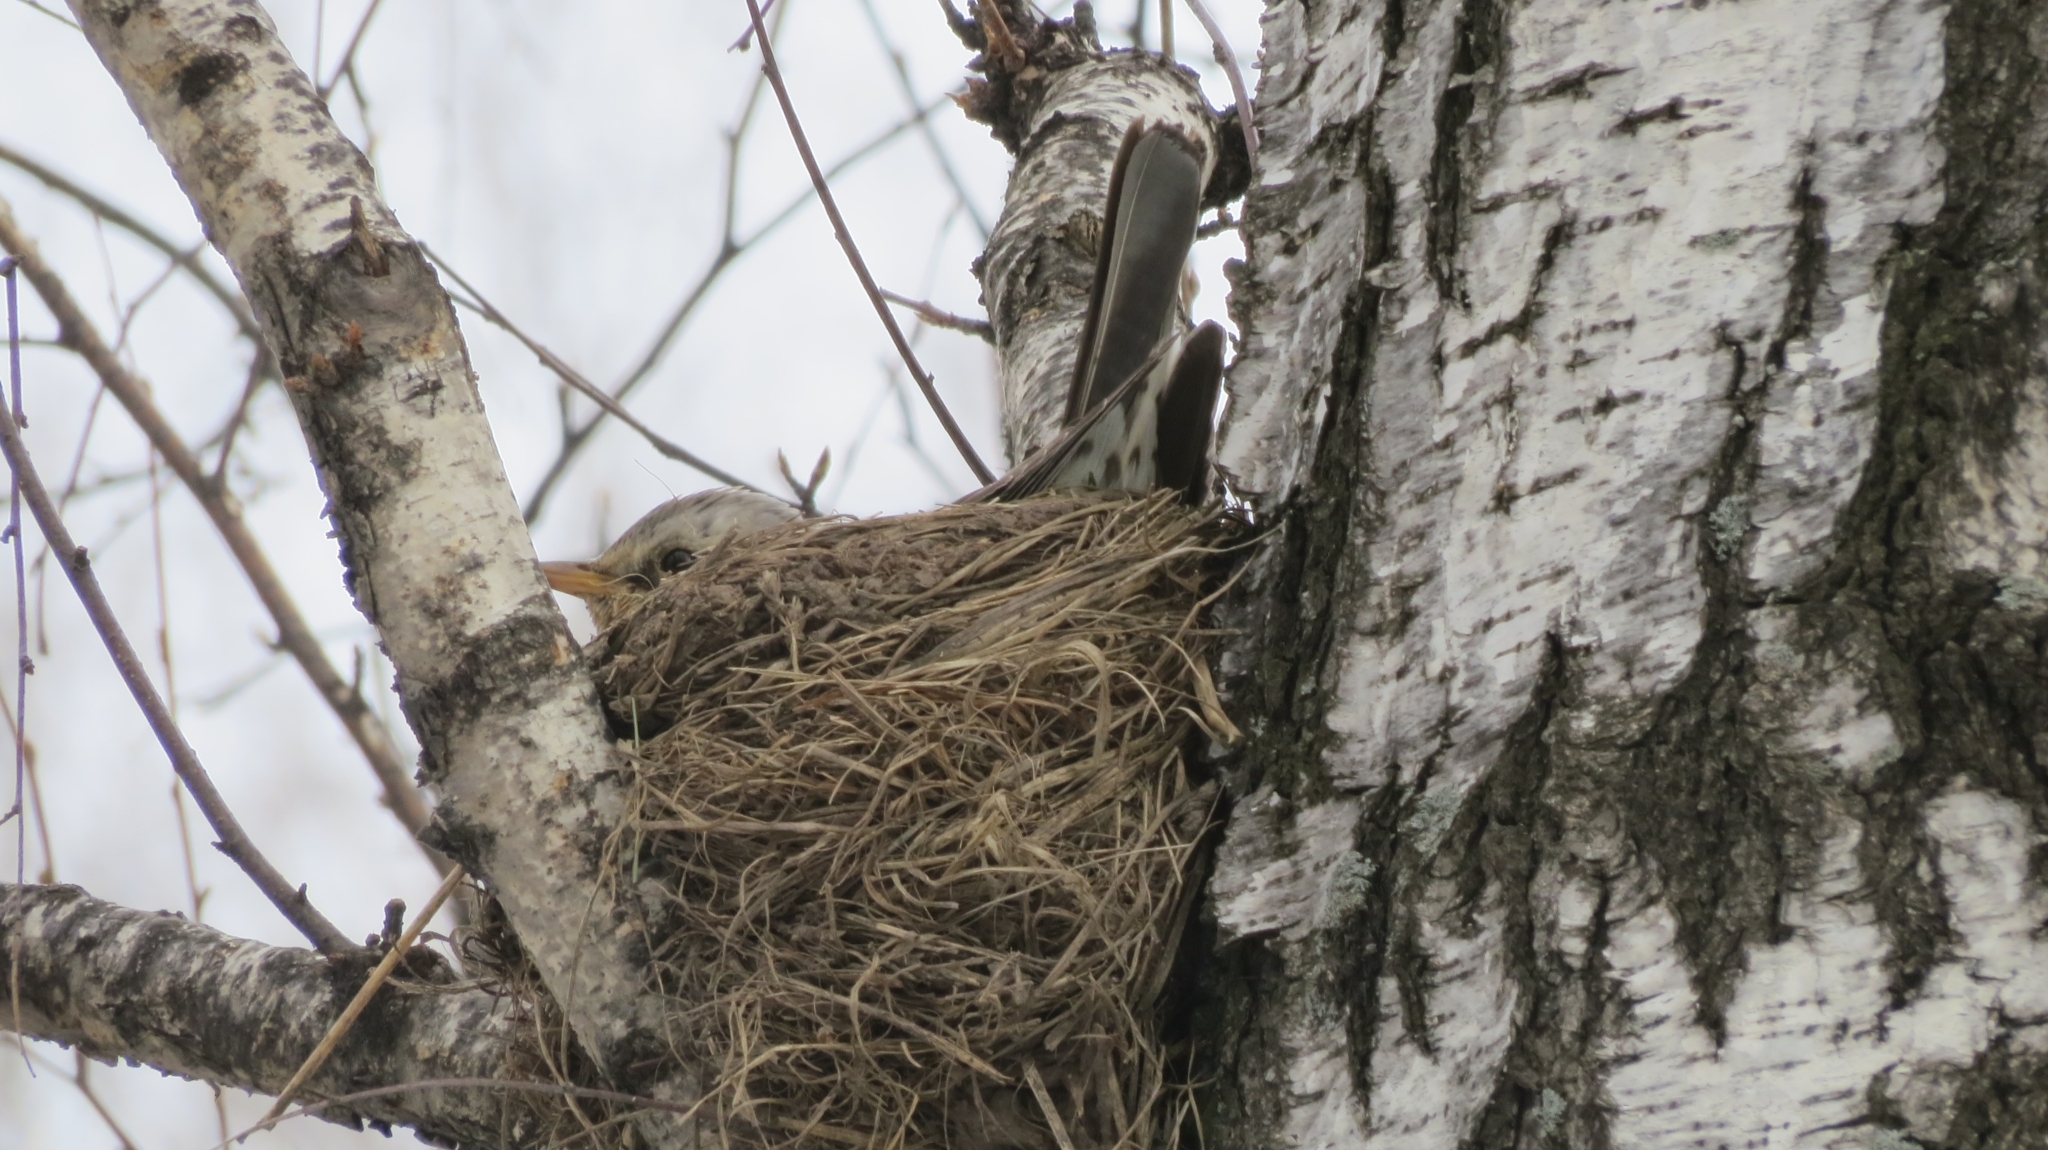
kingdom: Animalia
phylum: Chordata
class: Aves
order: Passeriformes
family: Turdidae
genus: Turdus
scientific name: Turdus pilaris
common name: Fieldfare
